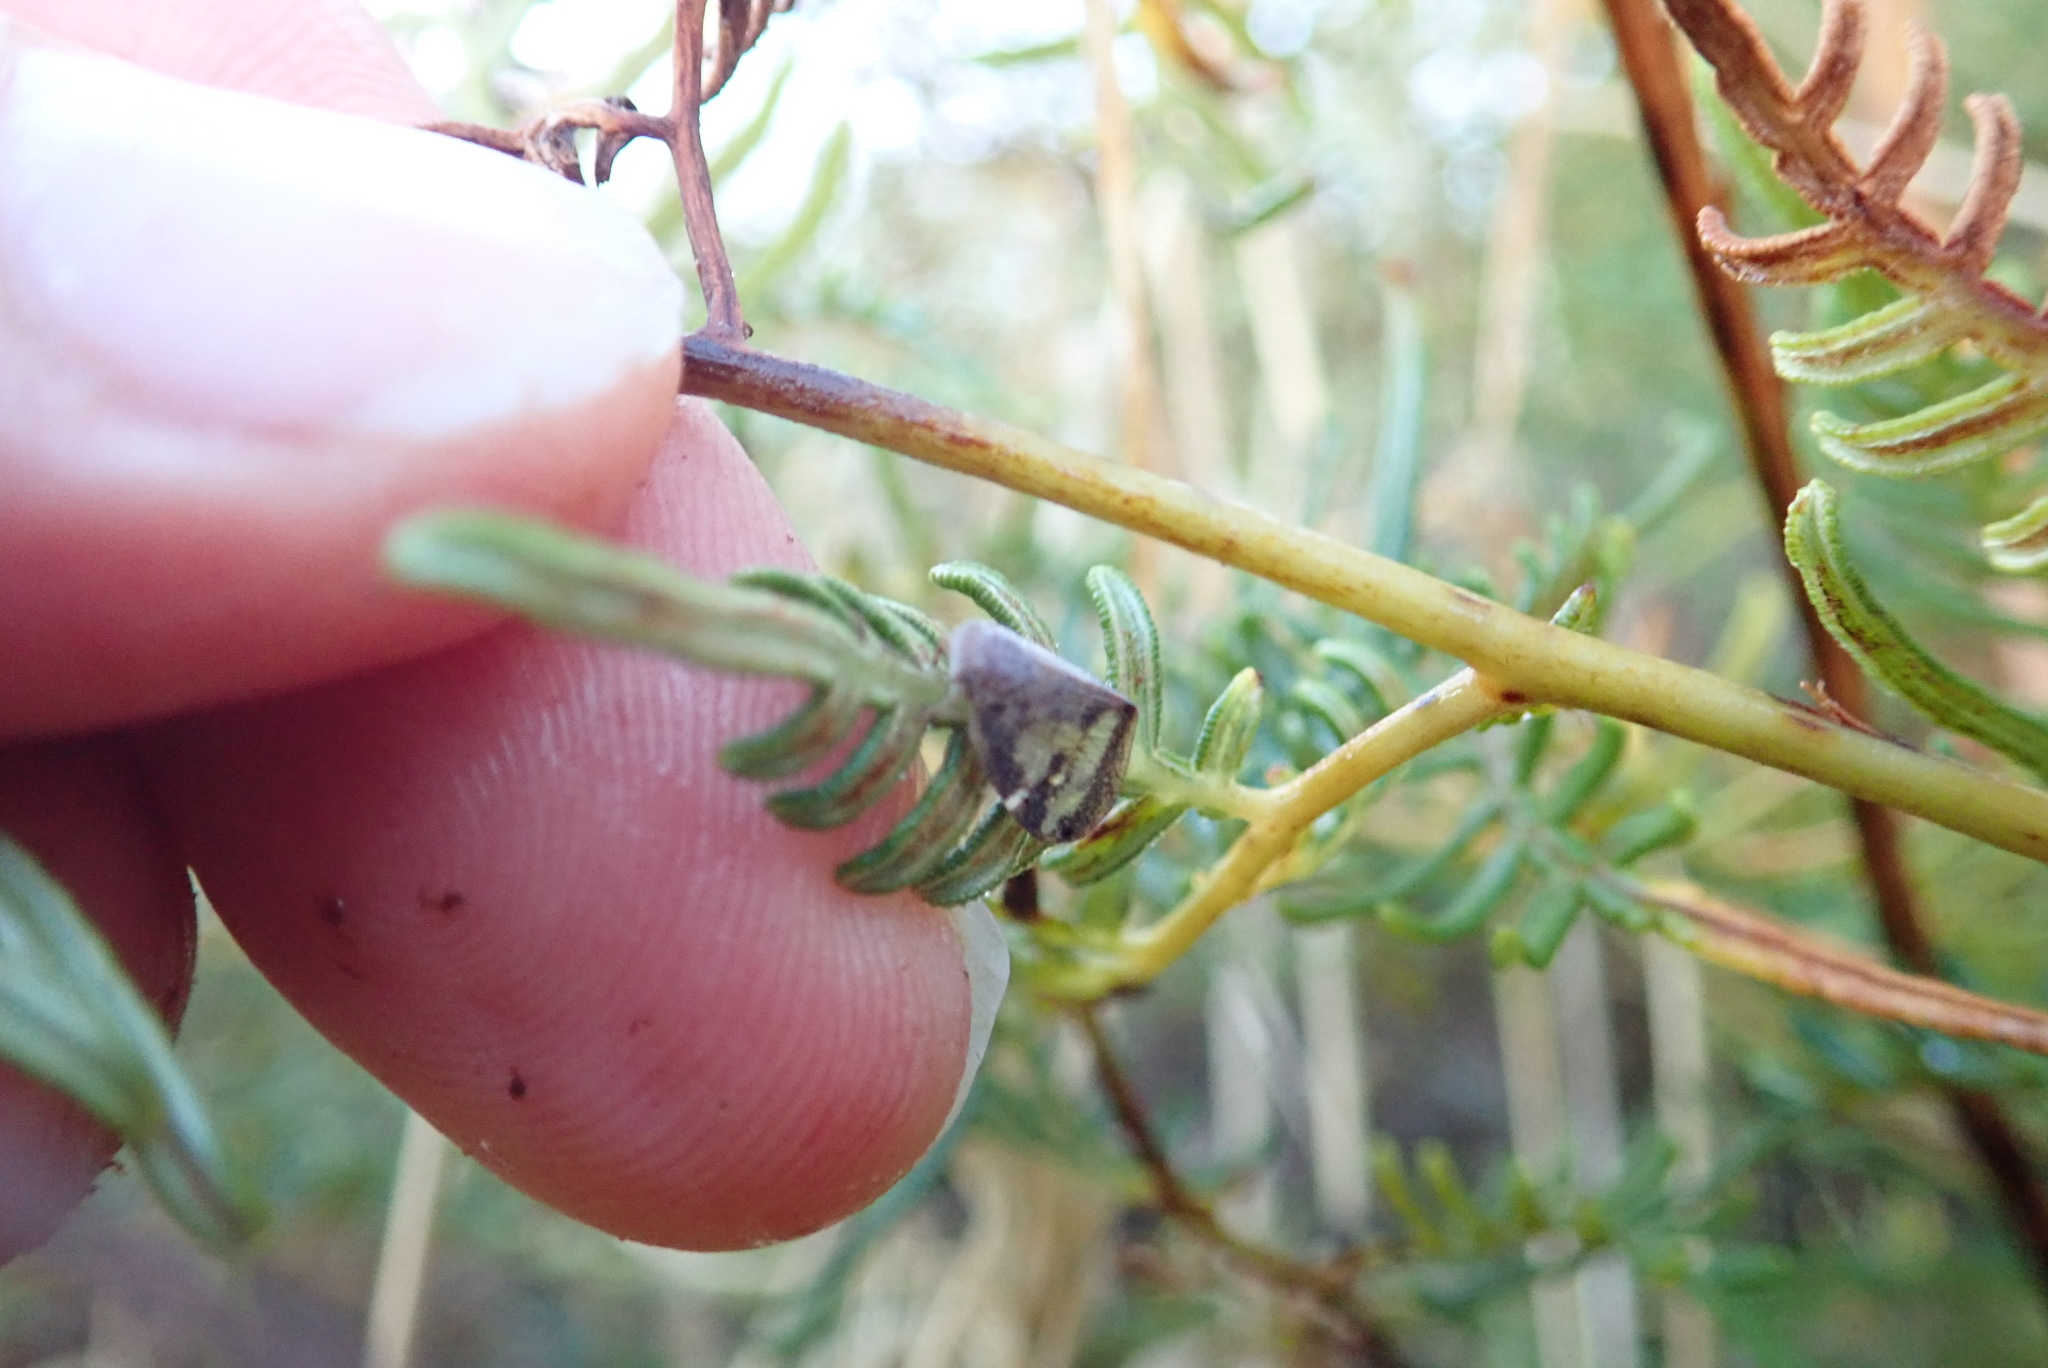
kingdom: Animalia
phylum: Arthropoda
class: Insecta
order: Hemiptera
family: Ricaniidae
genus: Scolypopa
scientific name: Scolypopa australis
